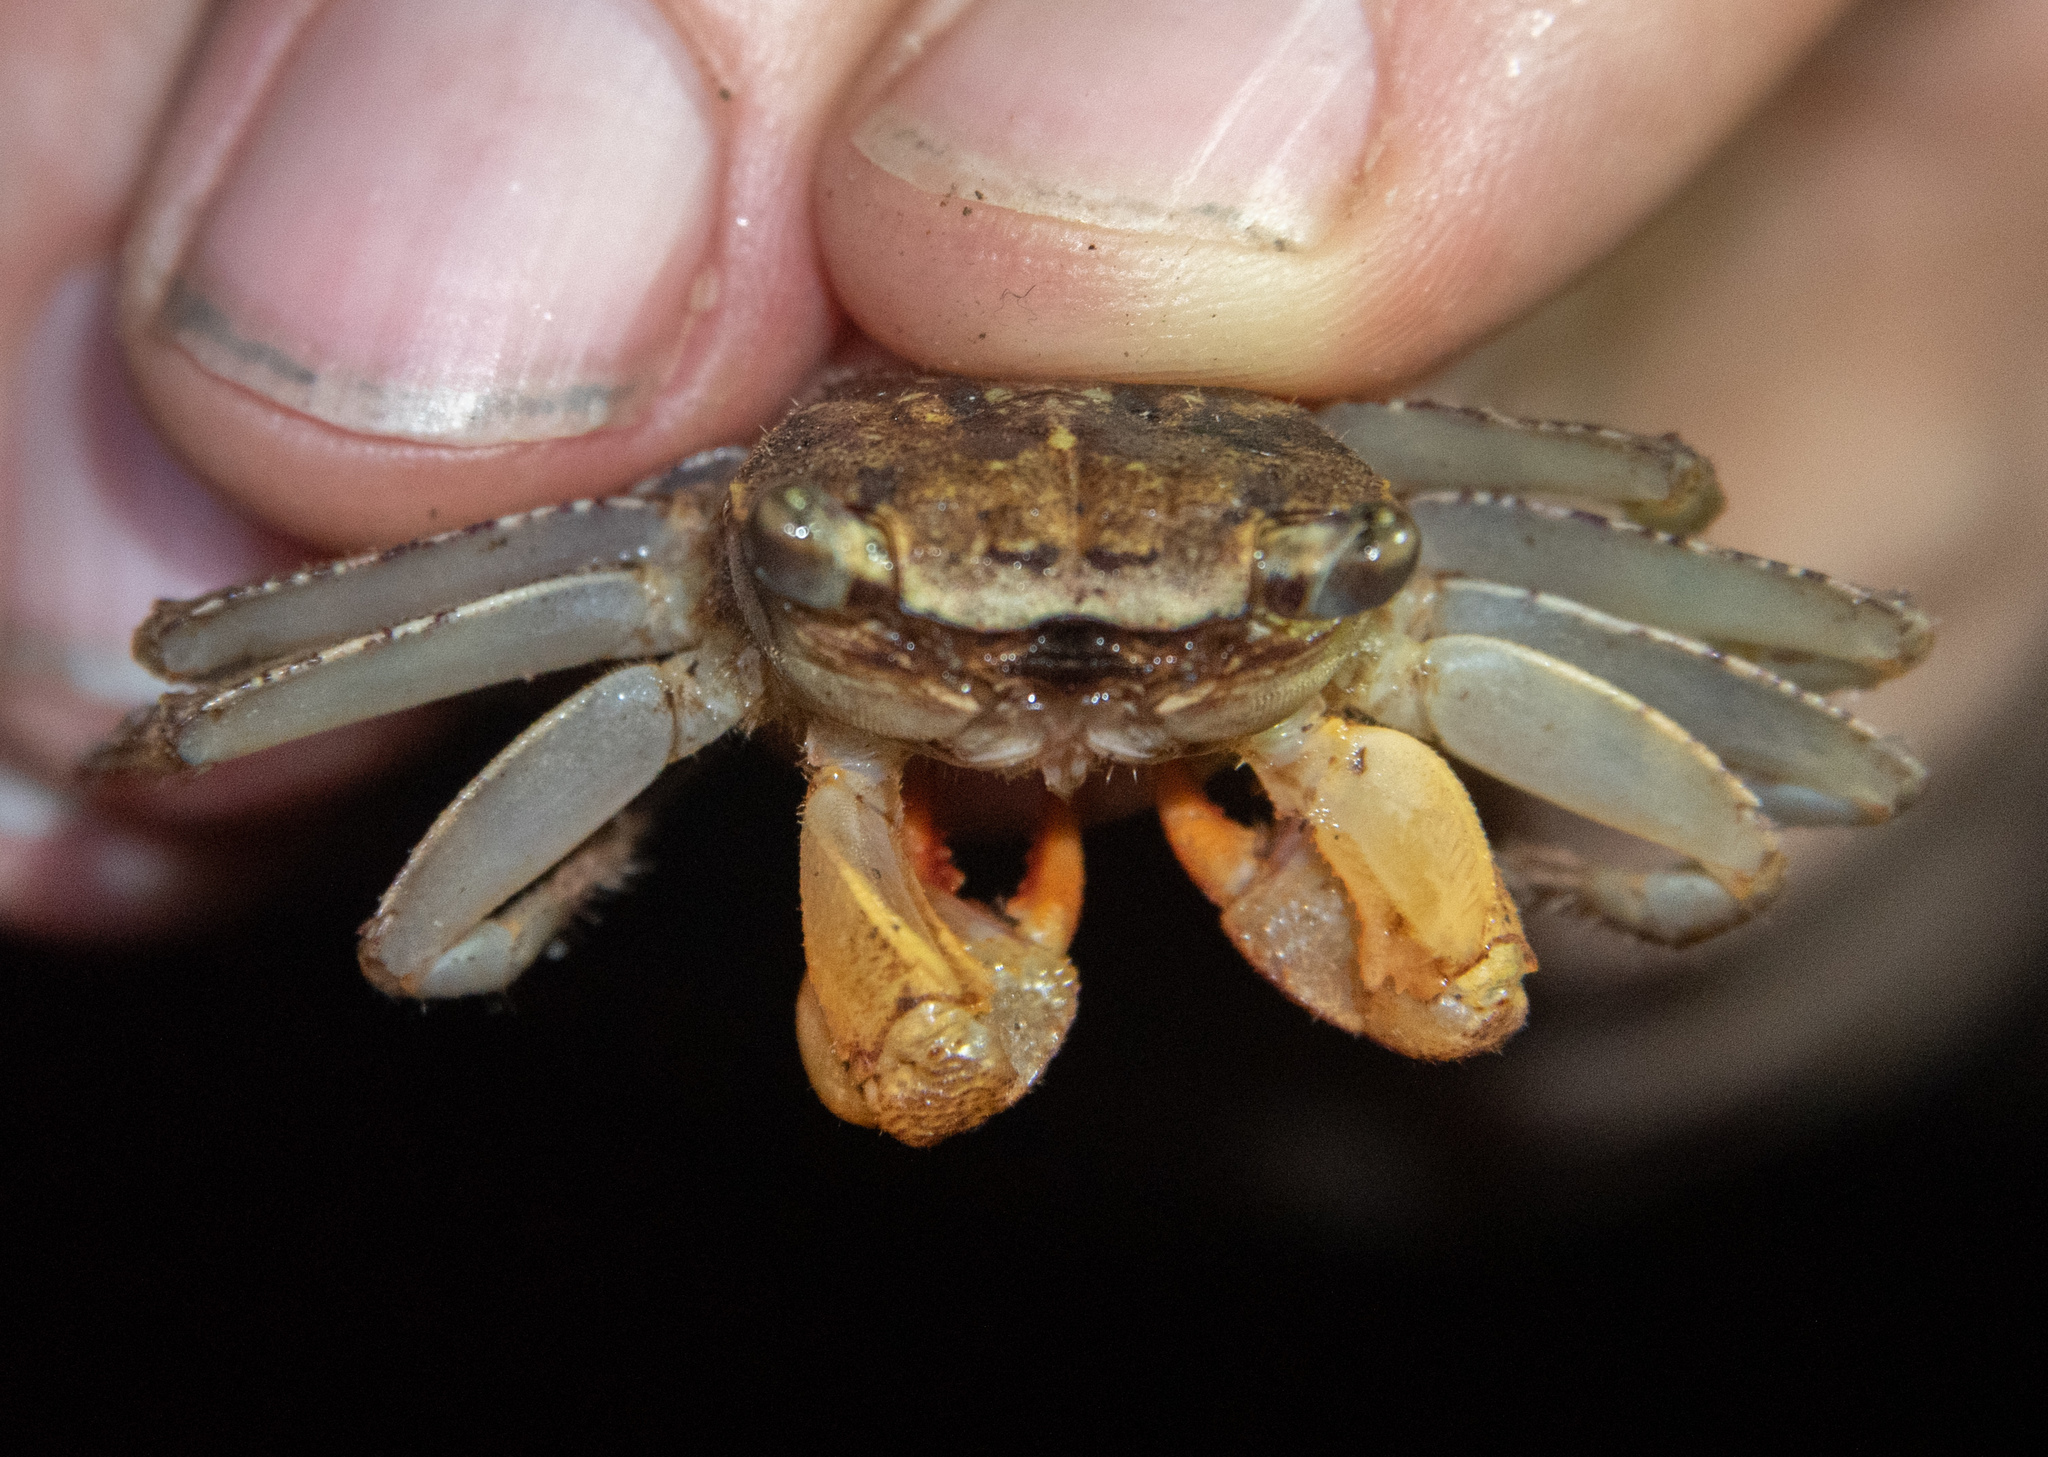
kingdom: Animalia
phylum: Arthropoda
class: Malacostraca
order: Decapoda
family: Sesarmidae
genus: Armases
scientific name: Armases angustum
